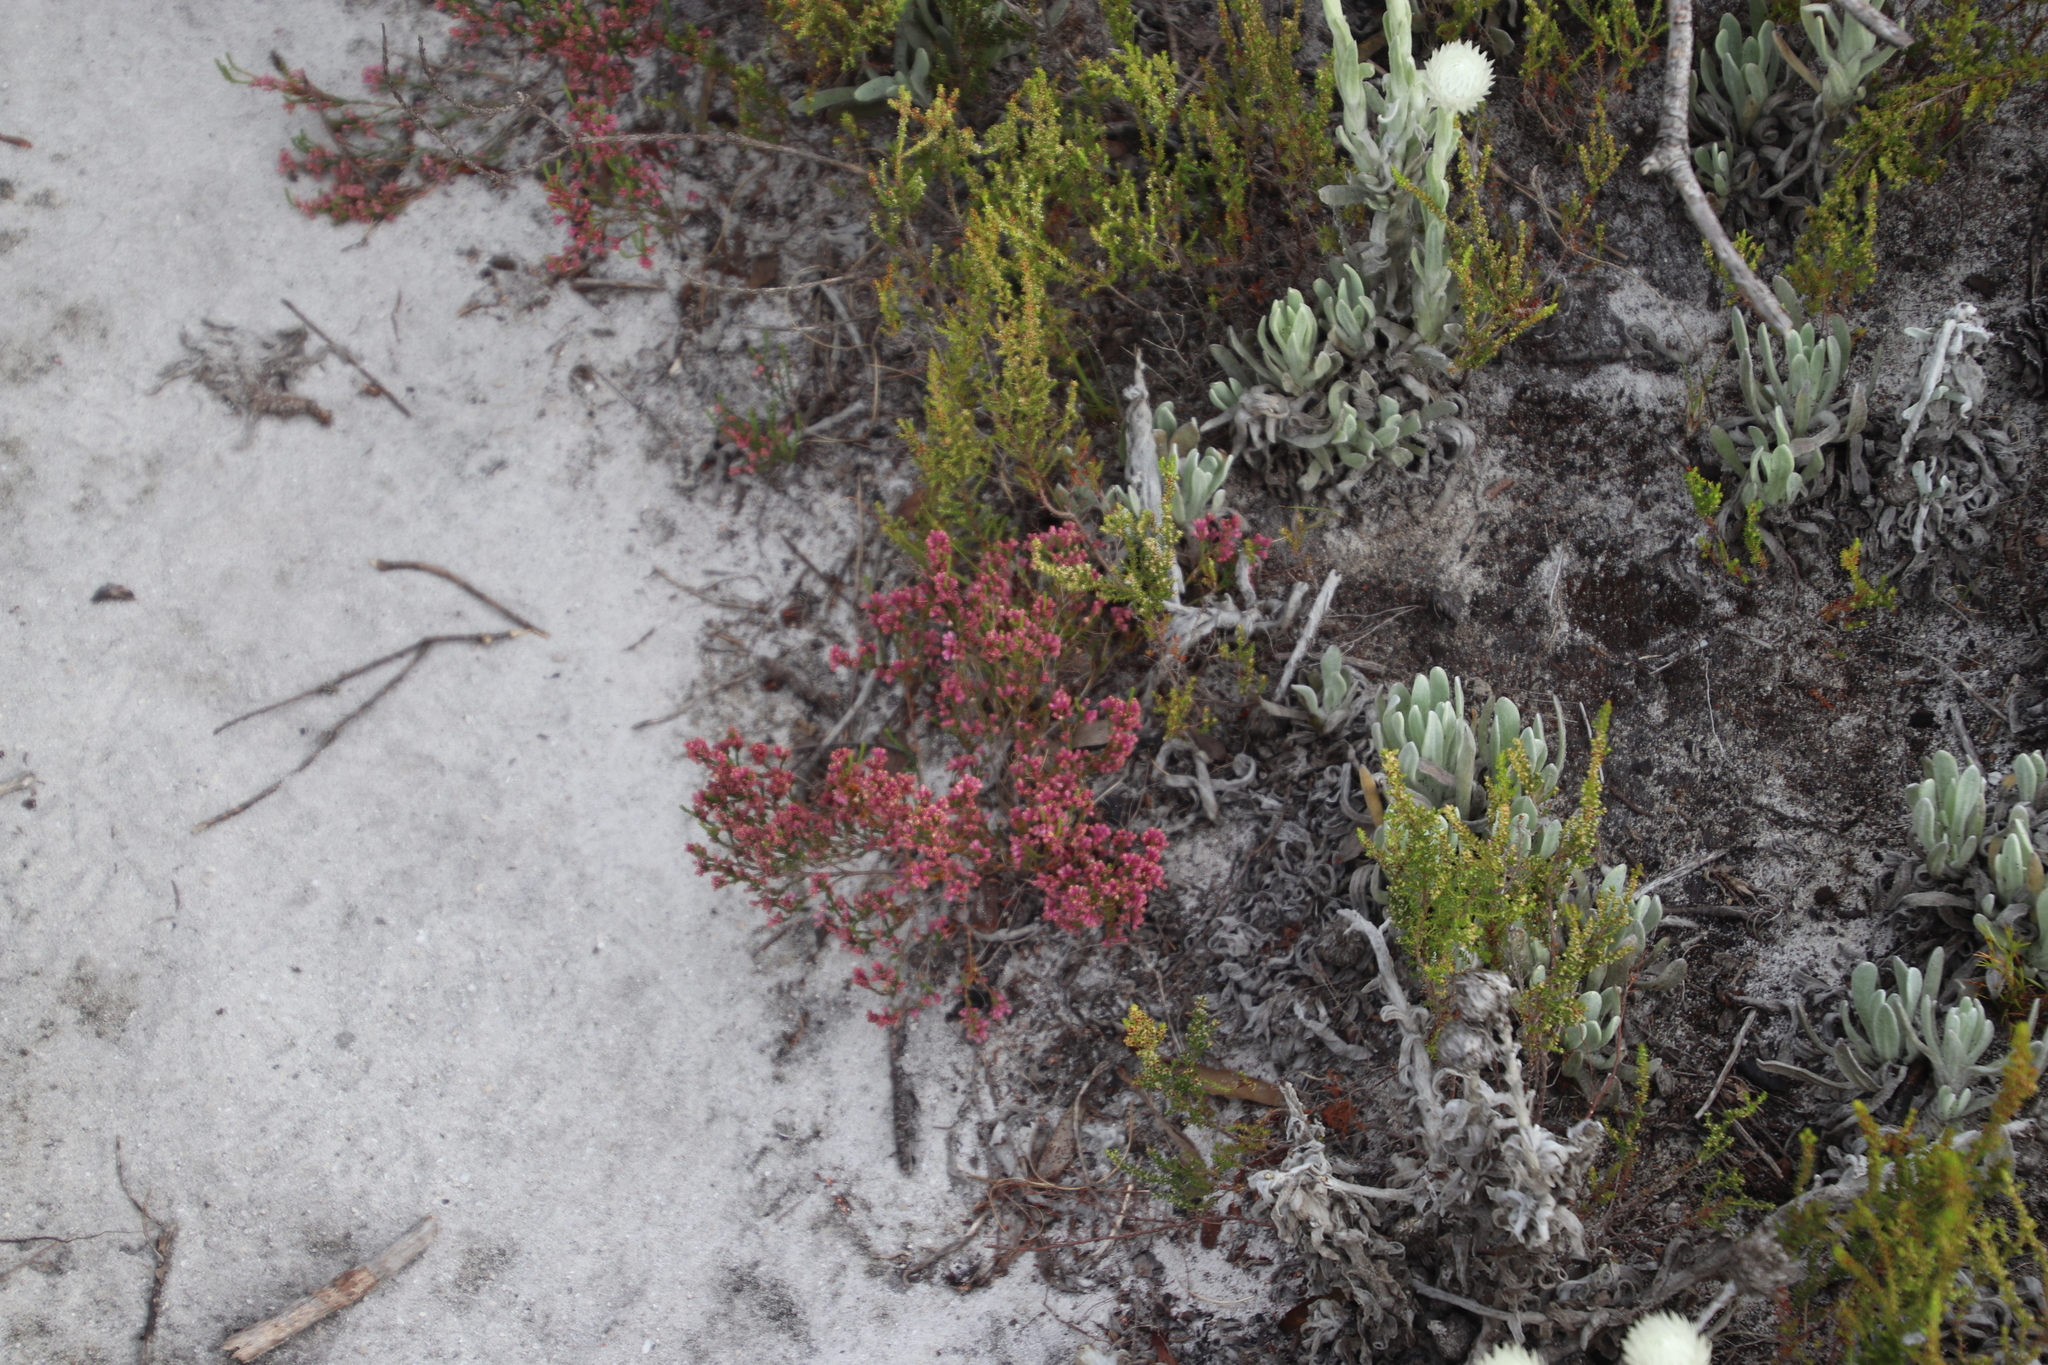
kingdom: Plantae
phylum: Tracheophyta
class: Magnoliopsida
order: Ericales
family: Ericaceae
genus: Erica
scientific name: Erica gnaphaloides
